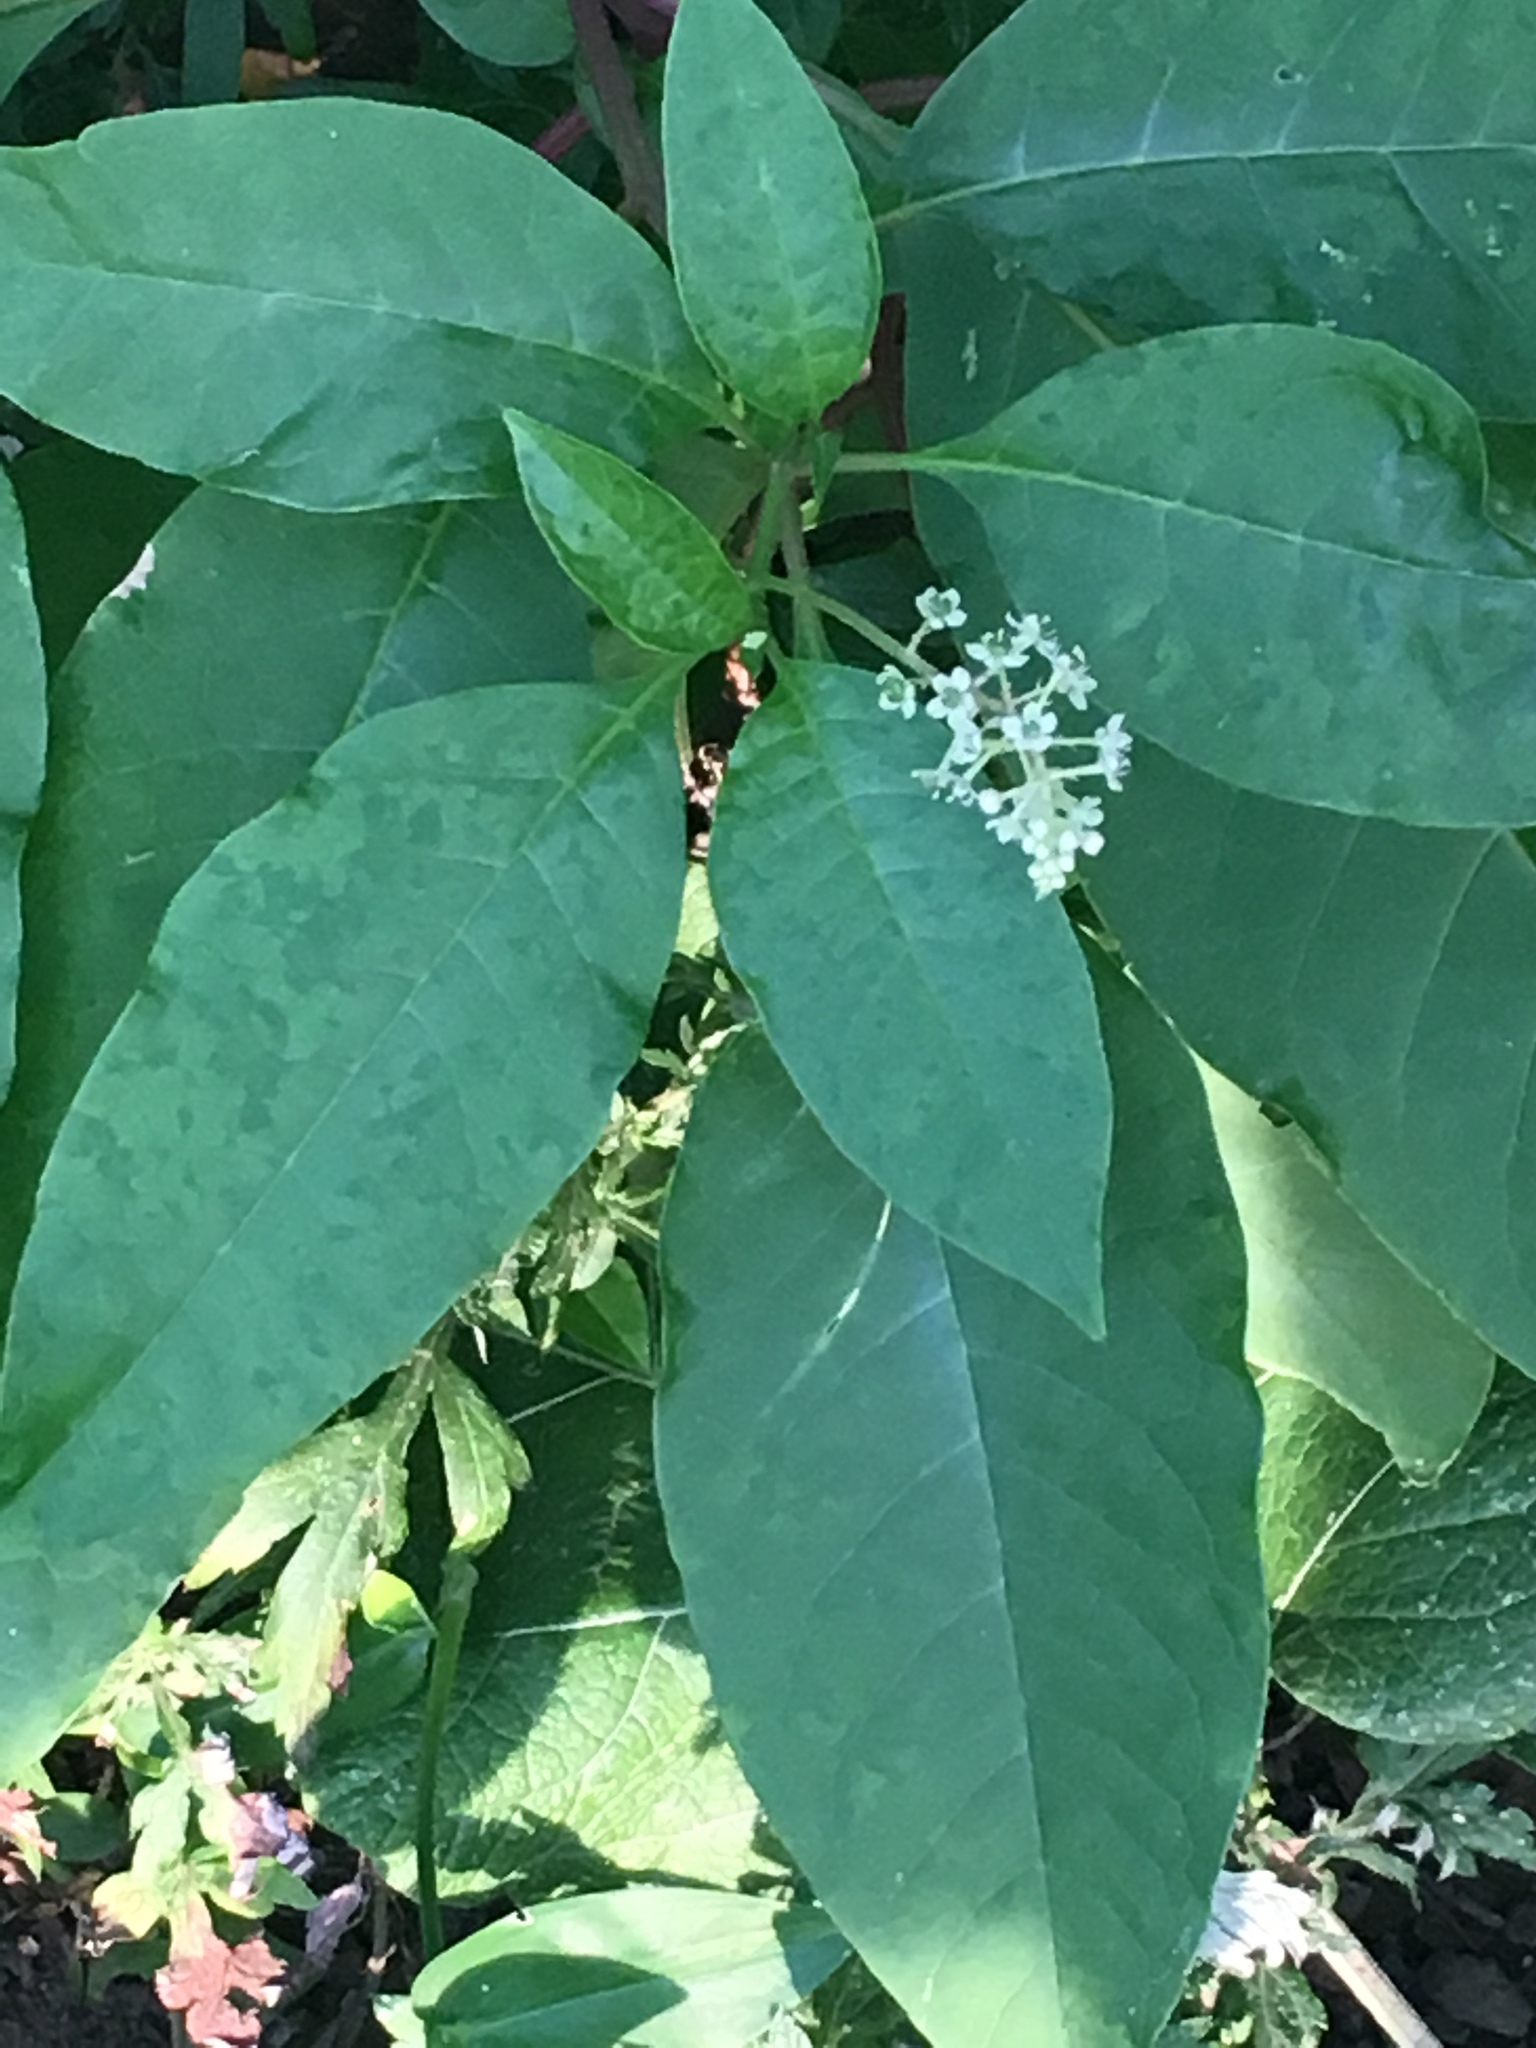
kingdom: Plantae
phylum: Tracheophyta
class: Magnoliopsida
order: Caryophyllales
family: Phytolaccaceae
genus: Phytolacca
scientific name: Phytolacca americana
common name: American pokeweed
